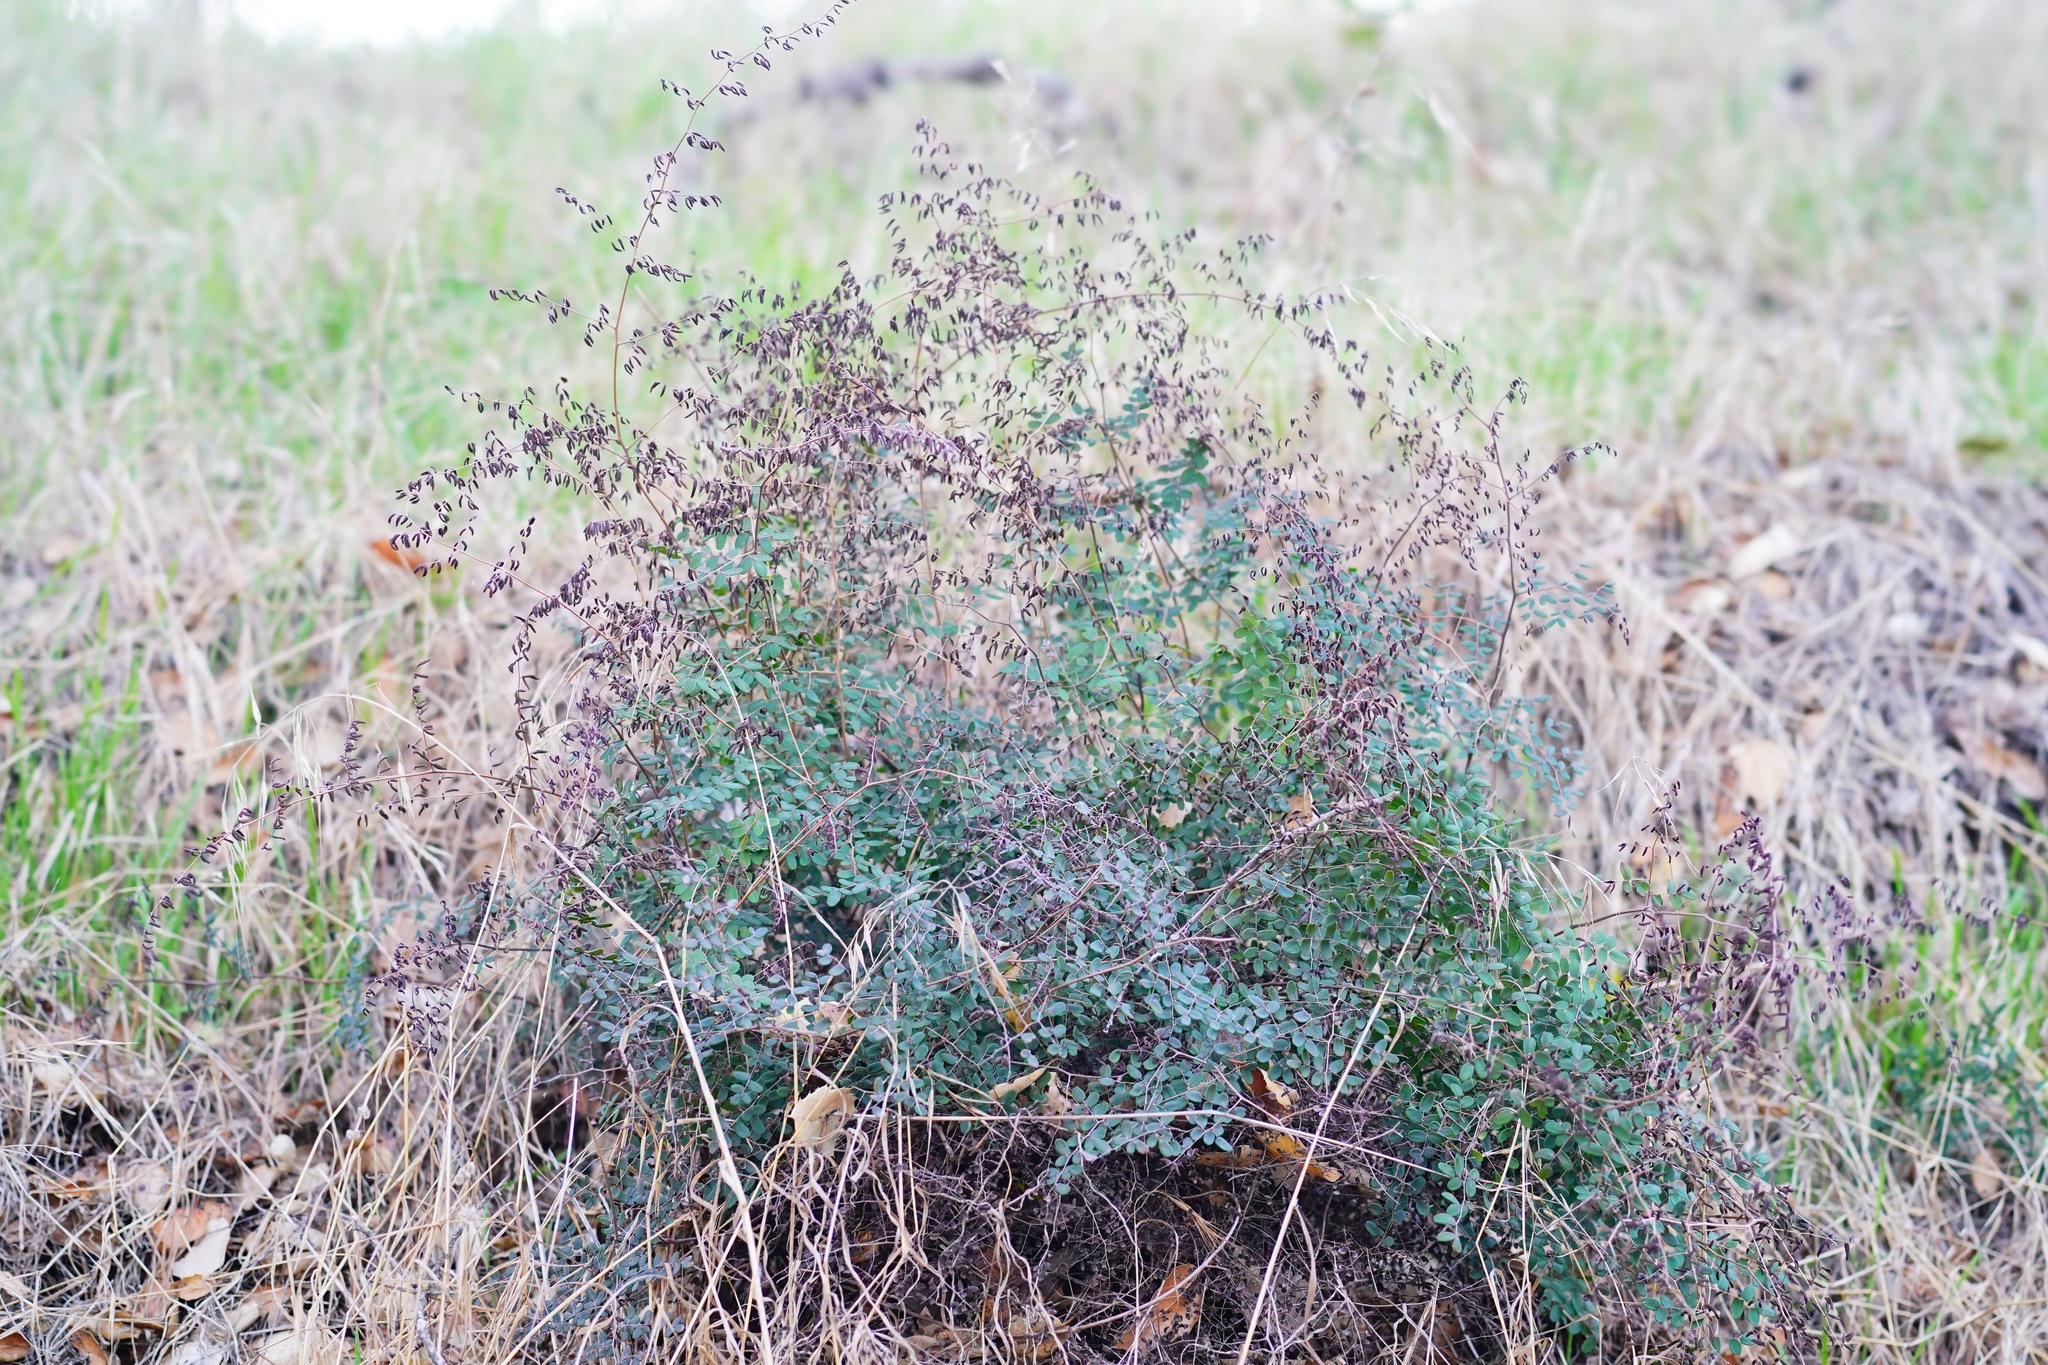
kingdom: Plantae
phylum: Tracheophyta
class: Polypodiopsida
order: Polypodiales
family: Pteridaceae
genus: Pellaea
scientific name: Pellaea andromedifolia
